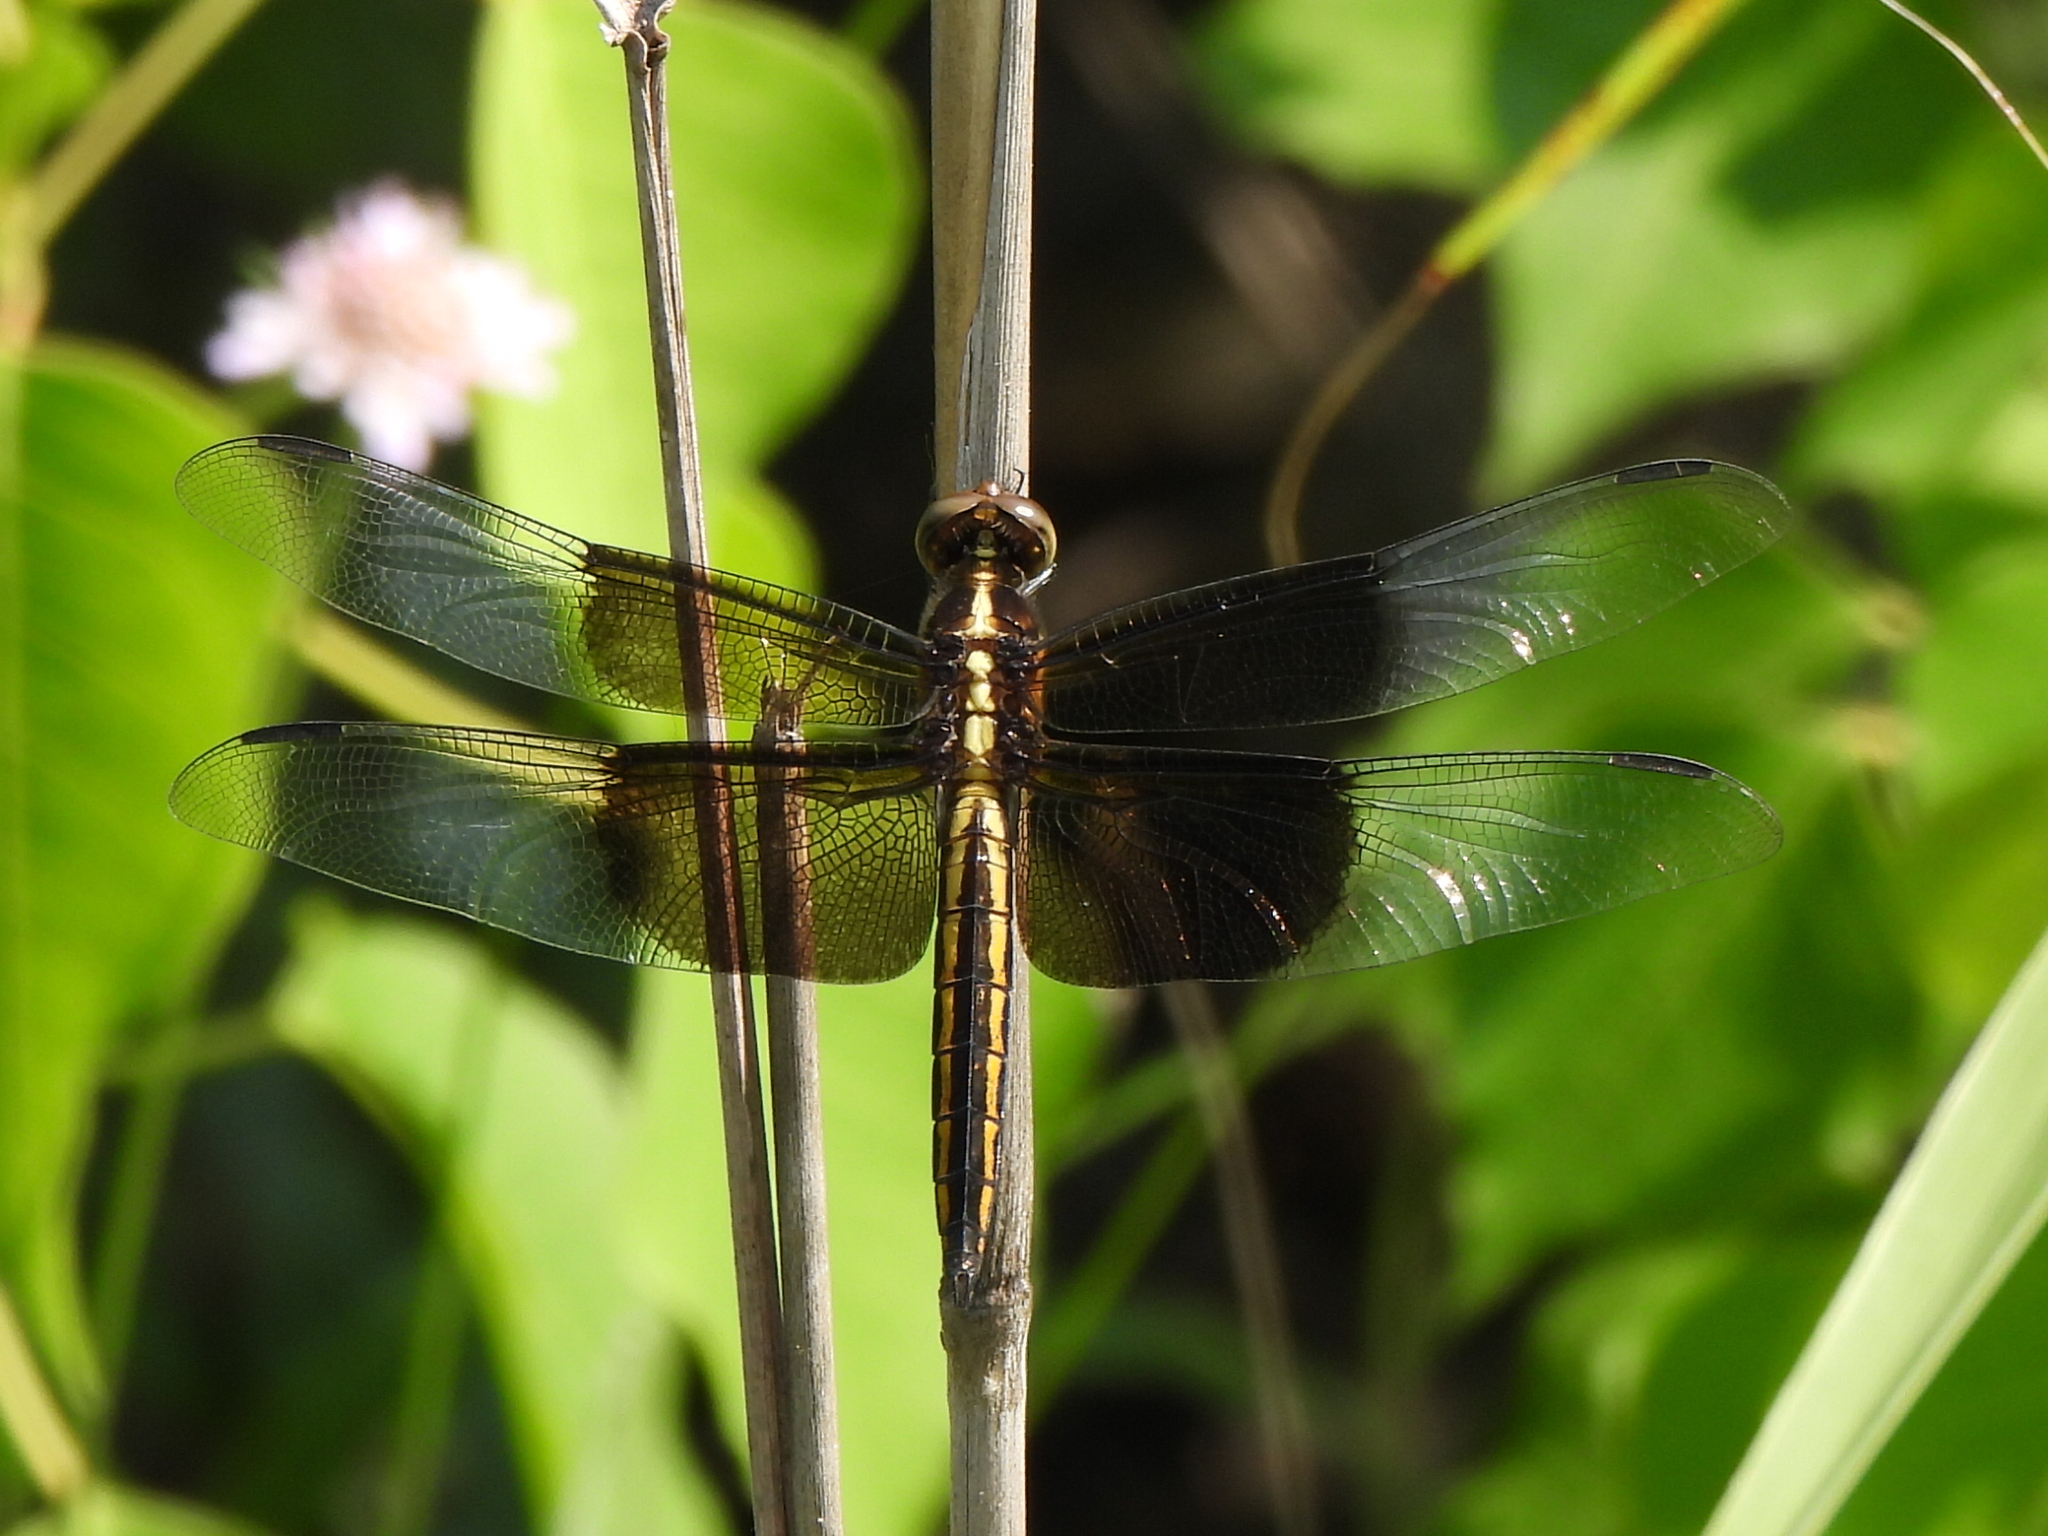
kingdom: Animalia
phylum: Arthropoda
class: Insecta
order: Odonata
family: Libellulidae
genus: Libellula
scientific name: Libellula luctuosa
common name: Widow skimmer
